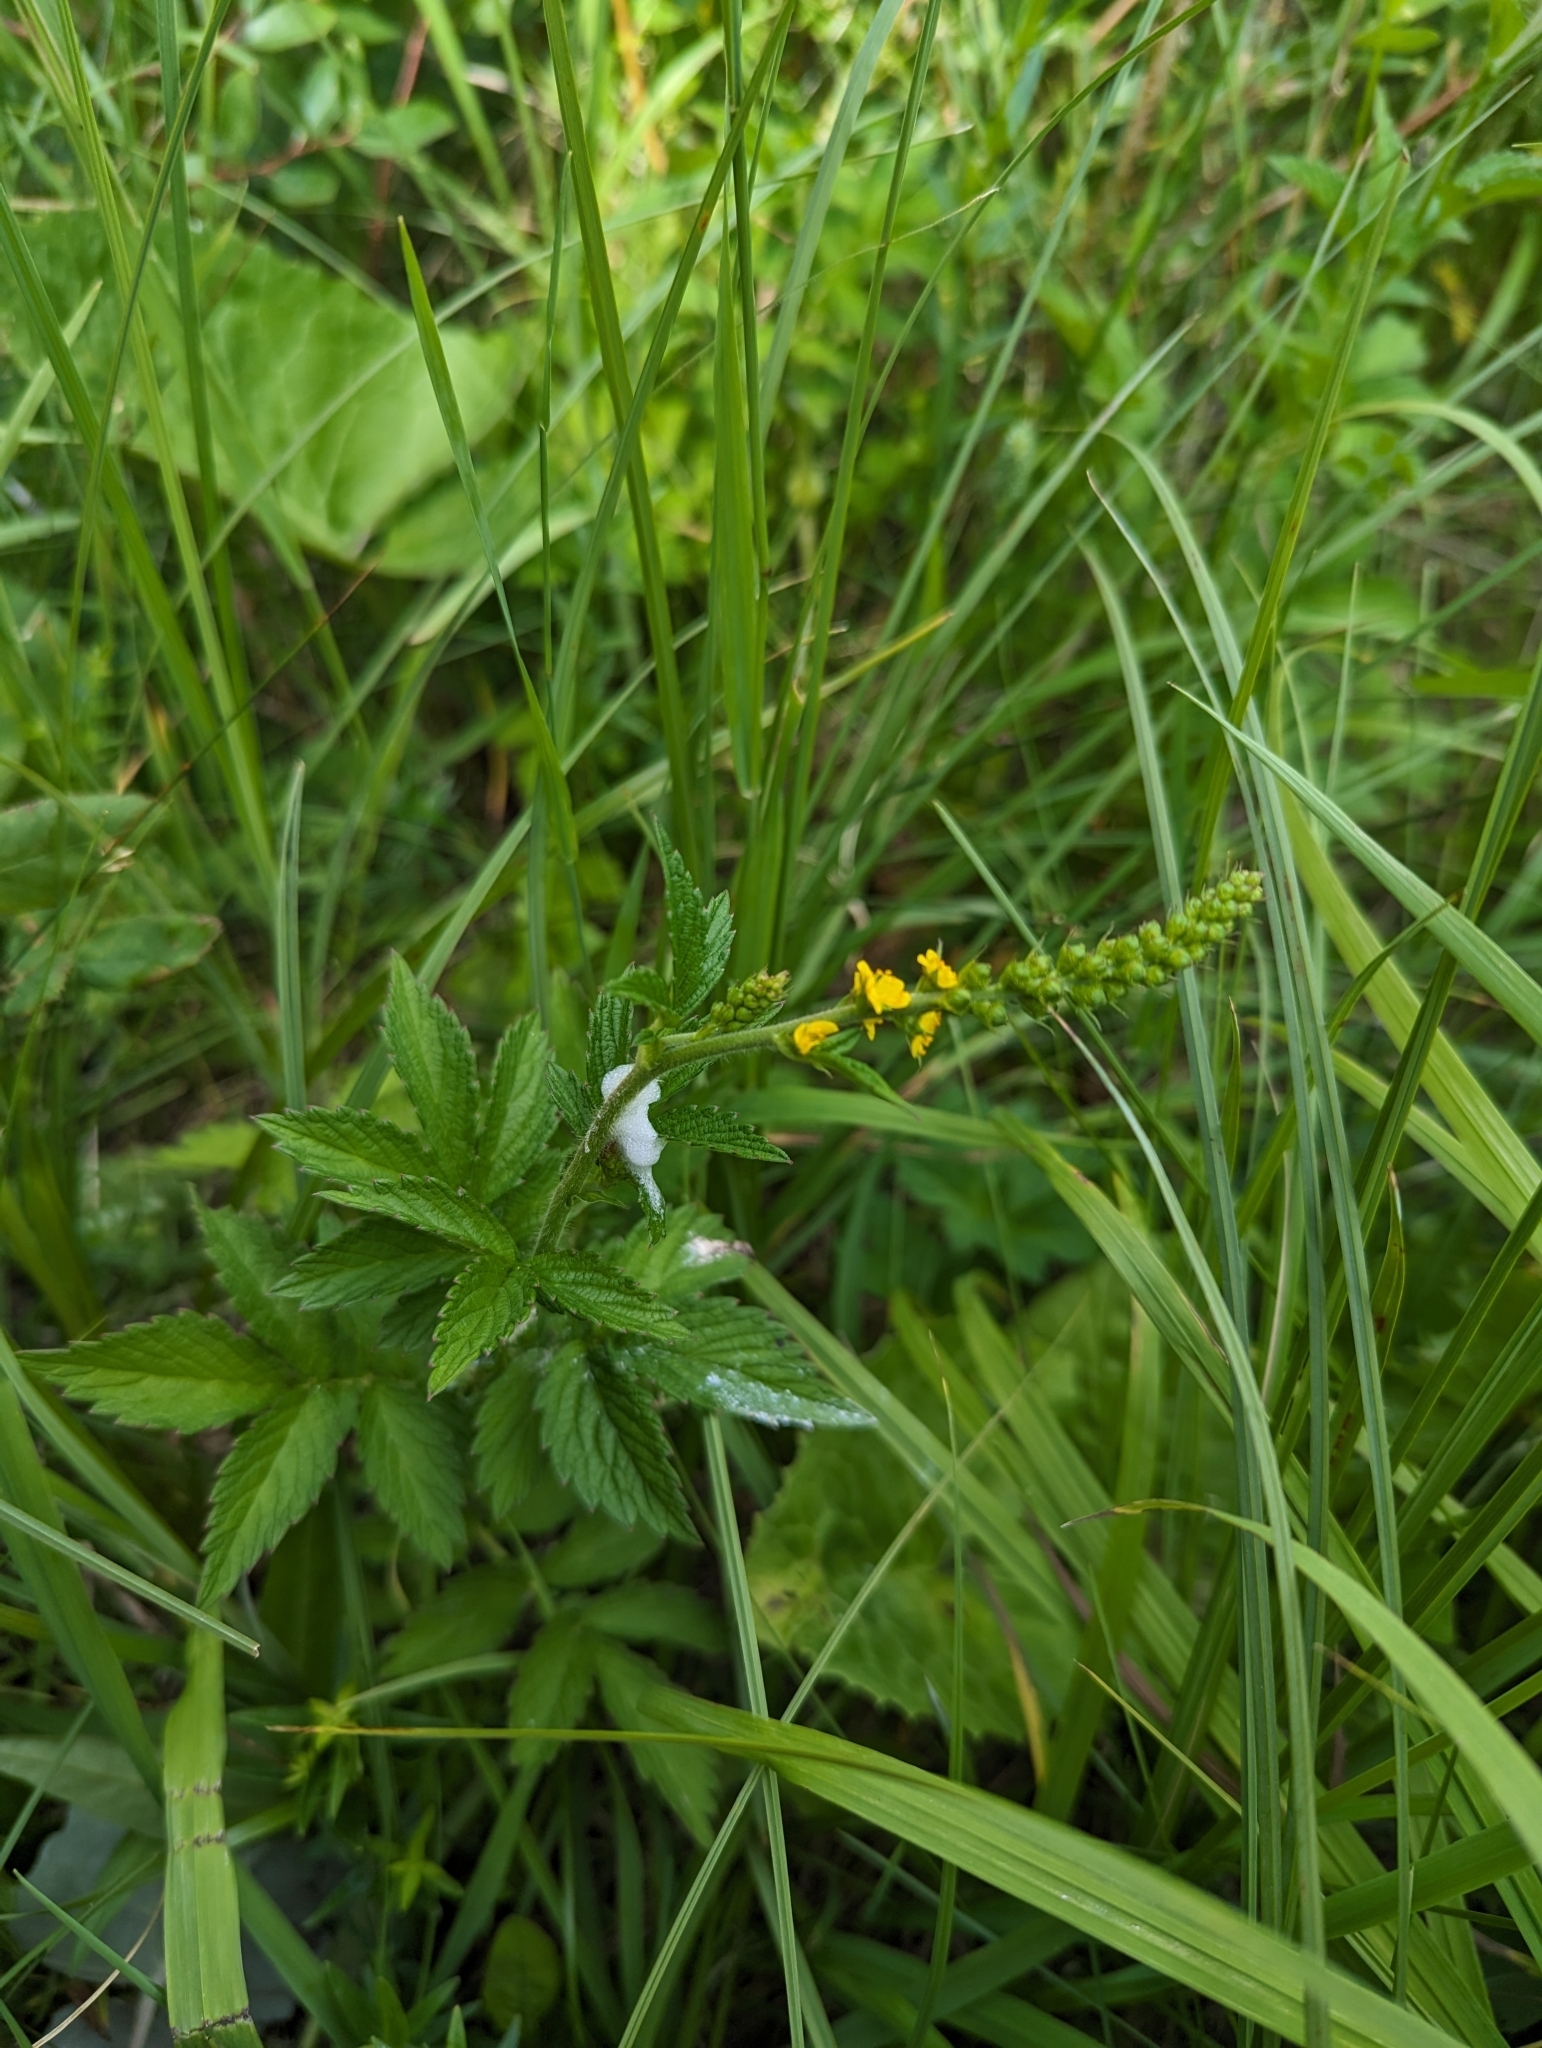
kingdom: Plantae
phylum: Tracheophyta
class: Magnoliopsida
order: Rosales
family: Rosaceae
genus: Agrimonia
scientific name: Agrimonia striata
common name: Britton's agrimony
